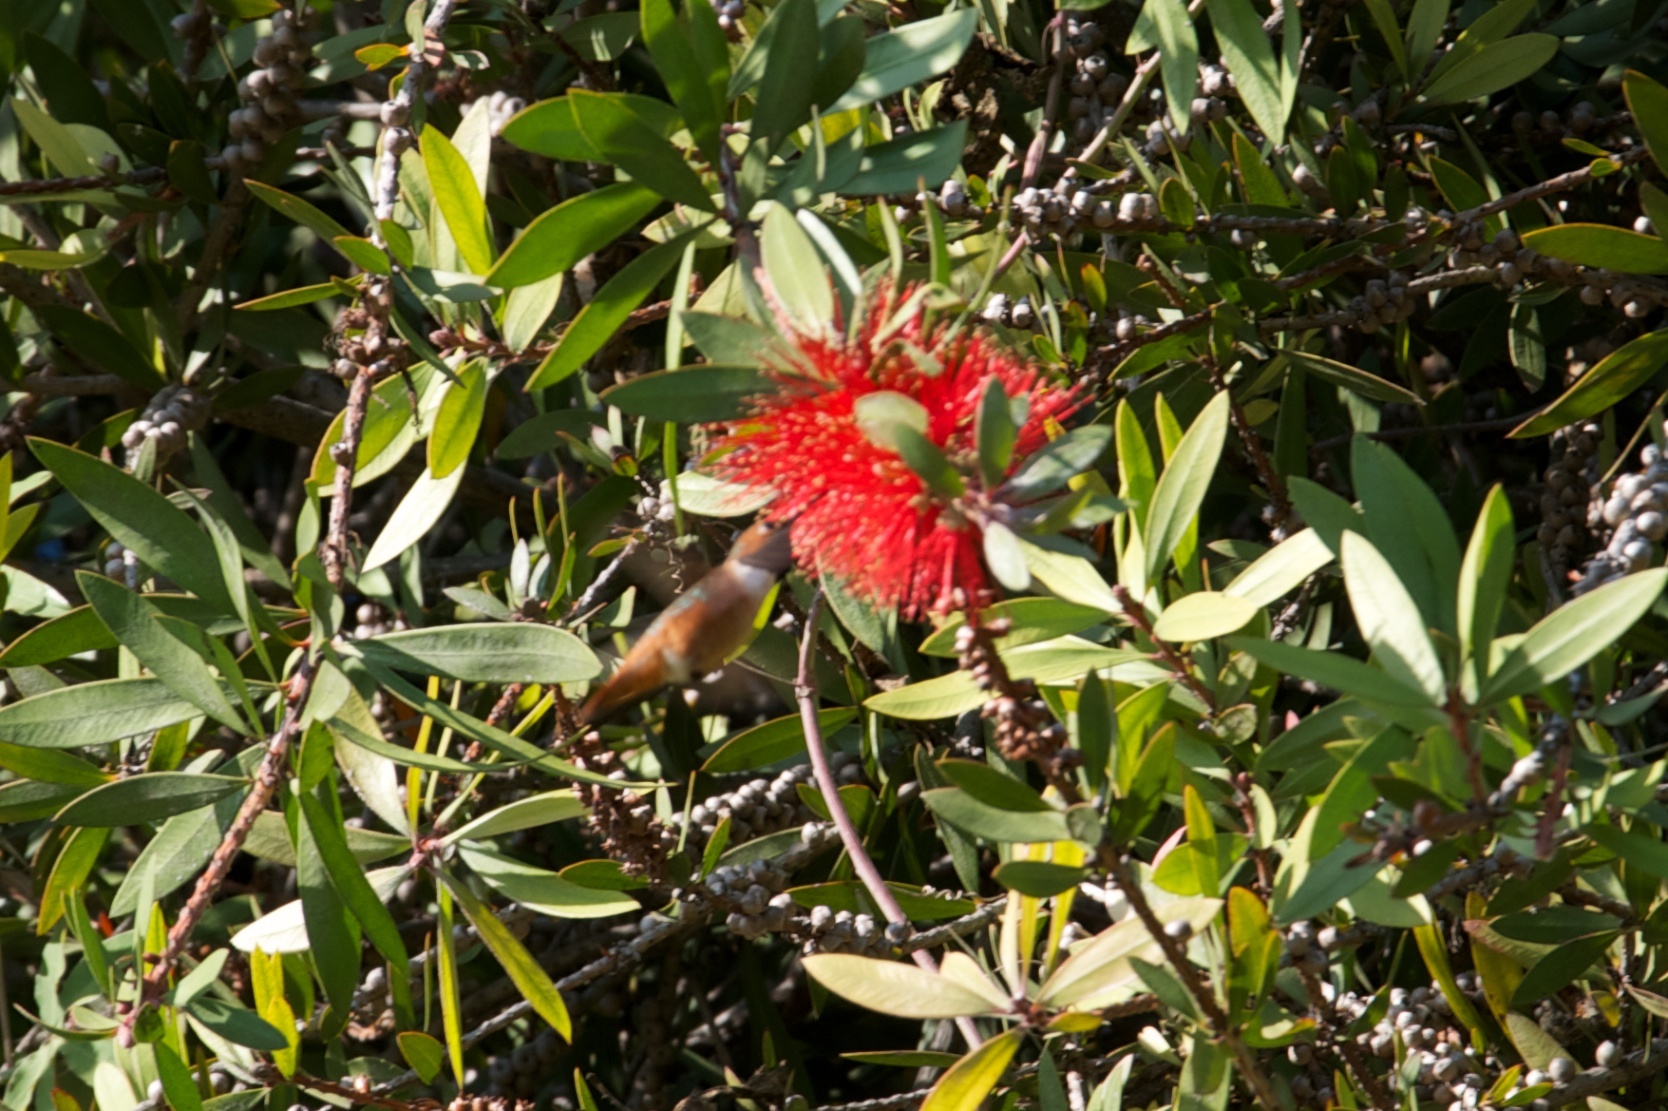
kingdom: Animalia
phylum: Chordata
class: Aves
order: Apodiformes
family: Trochilidae
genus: Selasphorus
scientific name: Selasphorus sasin
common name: Allen's hummingbird
